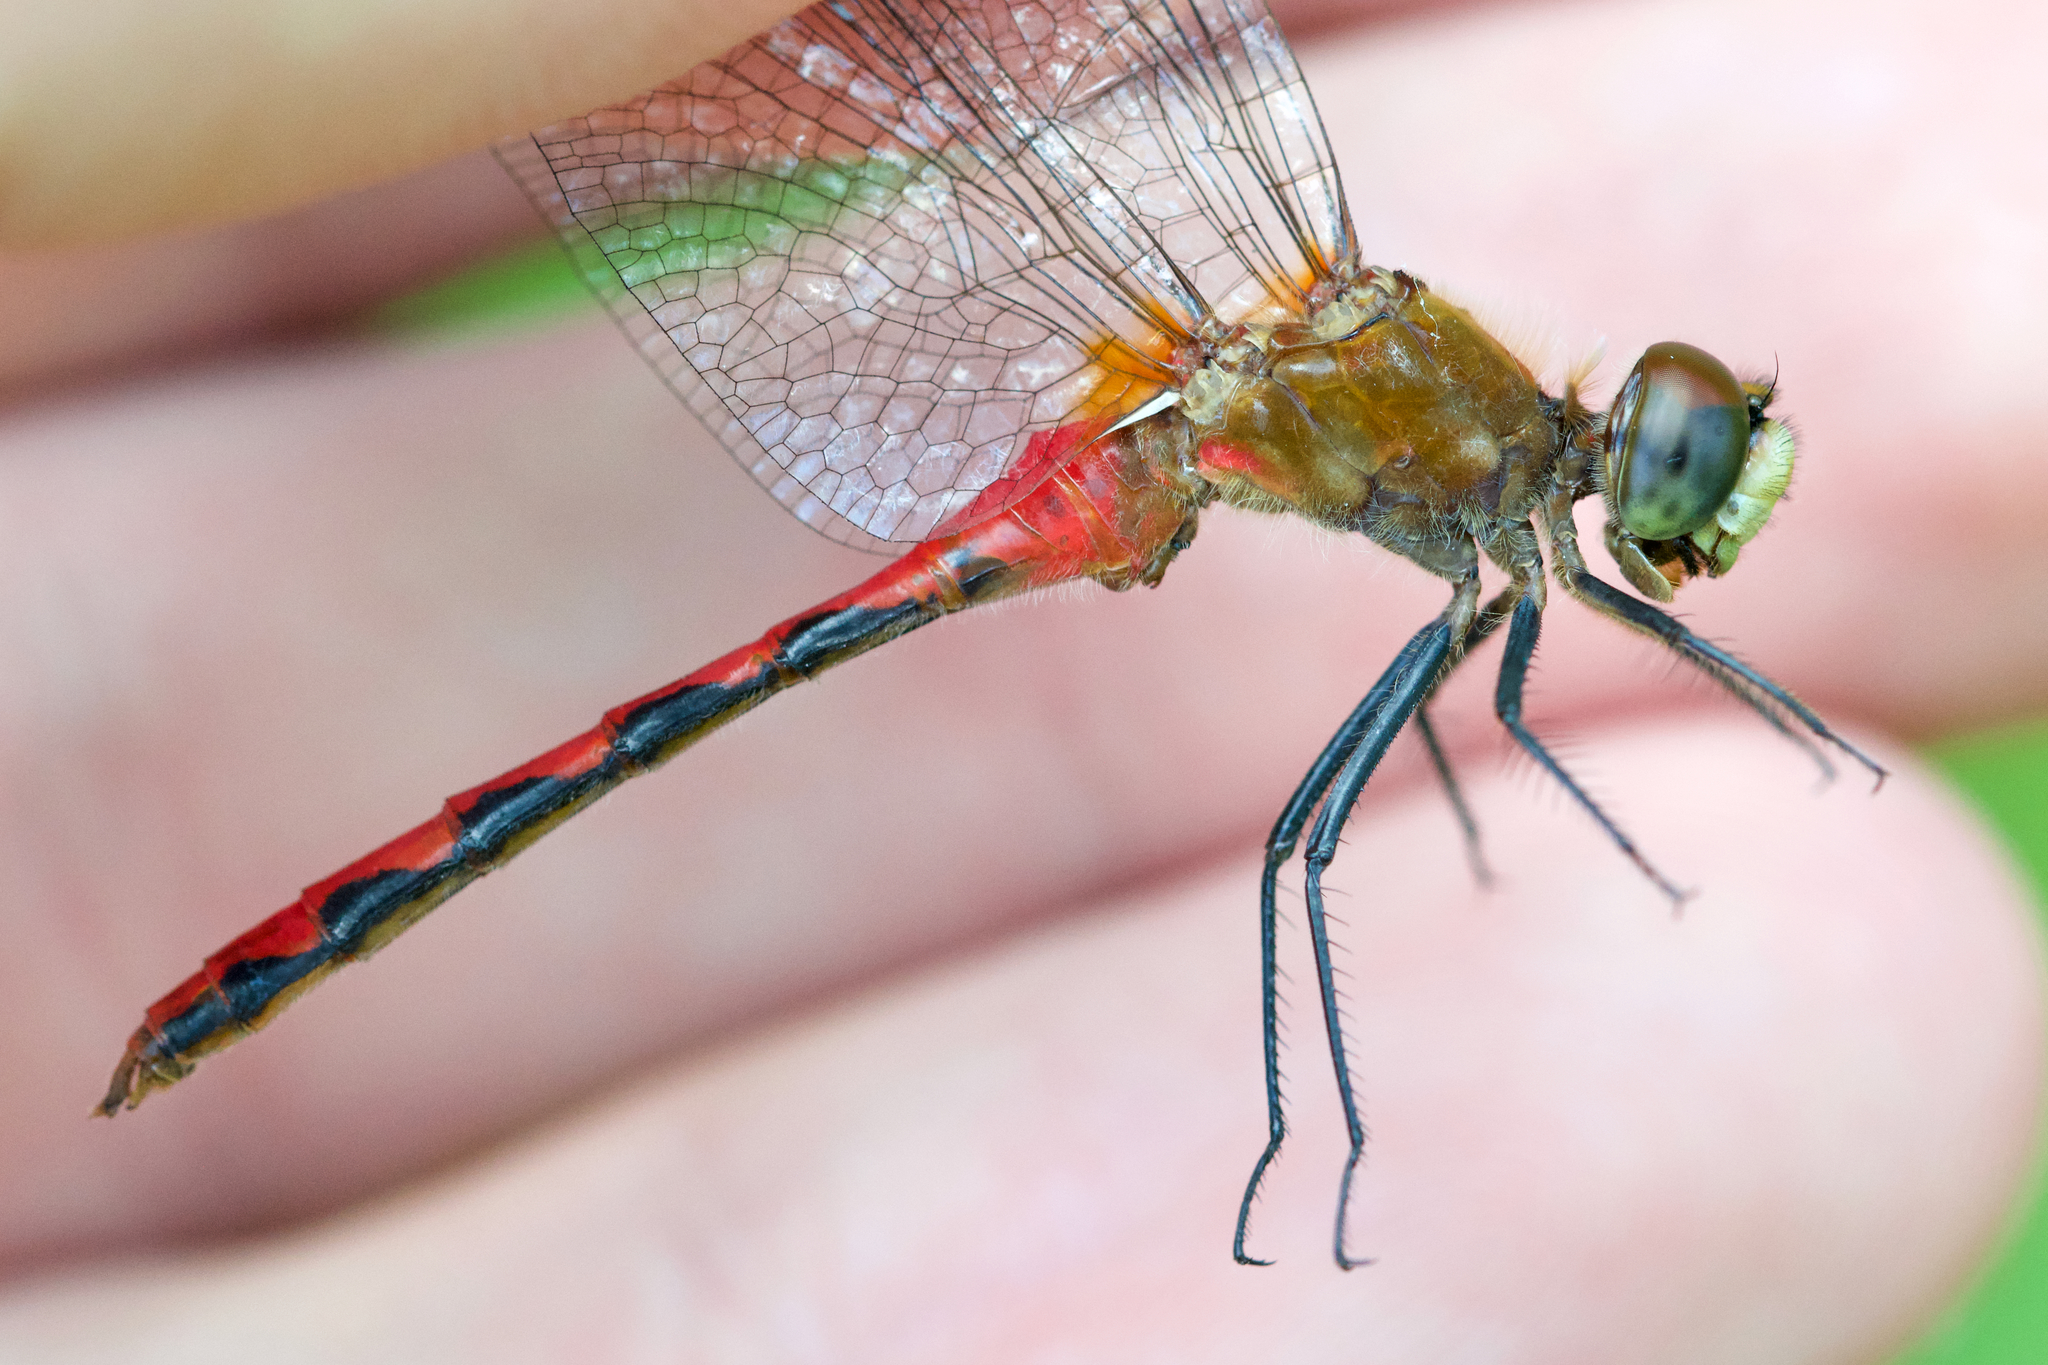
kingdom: Animalia
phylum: Arthropoda
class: Insecta
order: Odonata
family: Libellulidae
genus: Sympetrum
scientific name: Sympetrum obtrusum
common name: White-faced meadowhawk
